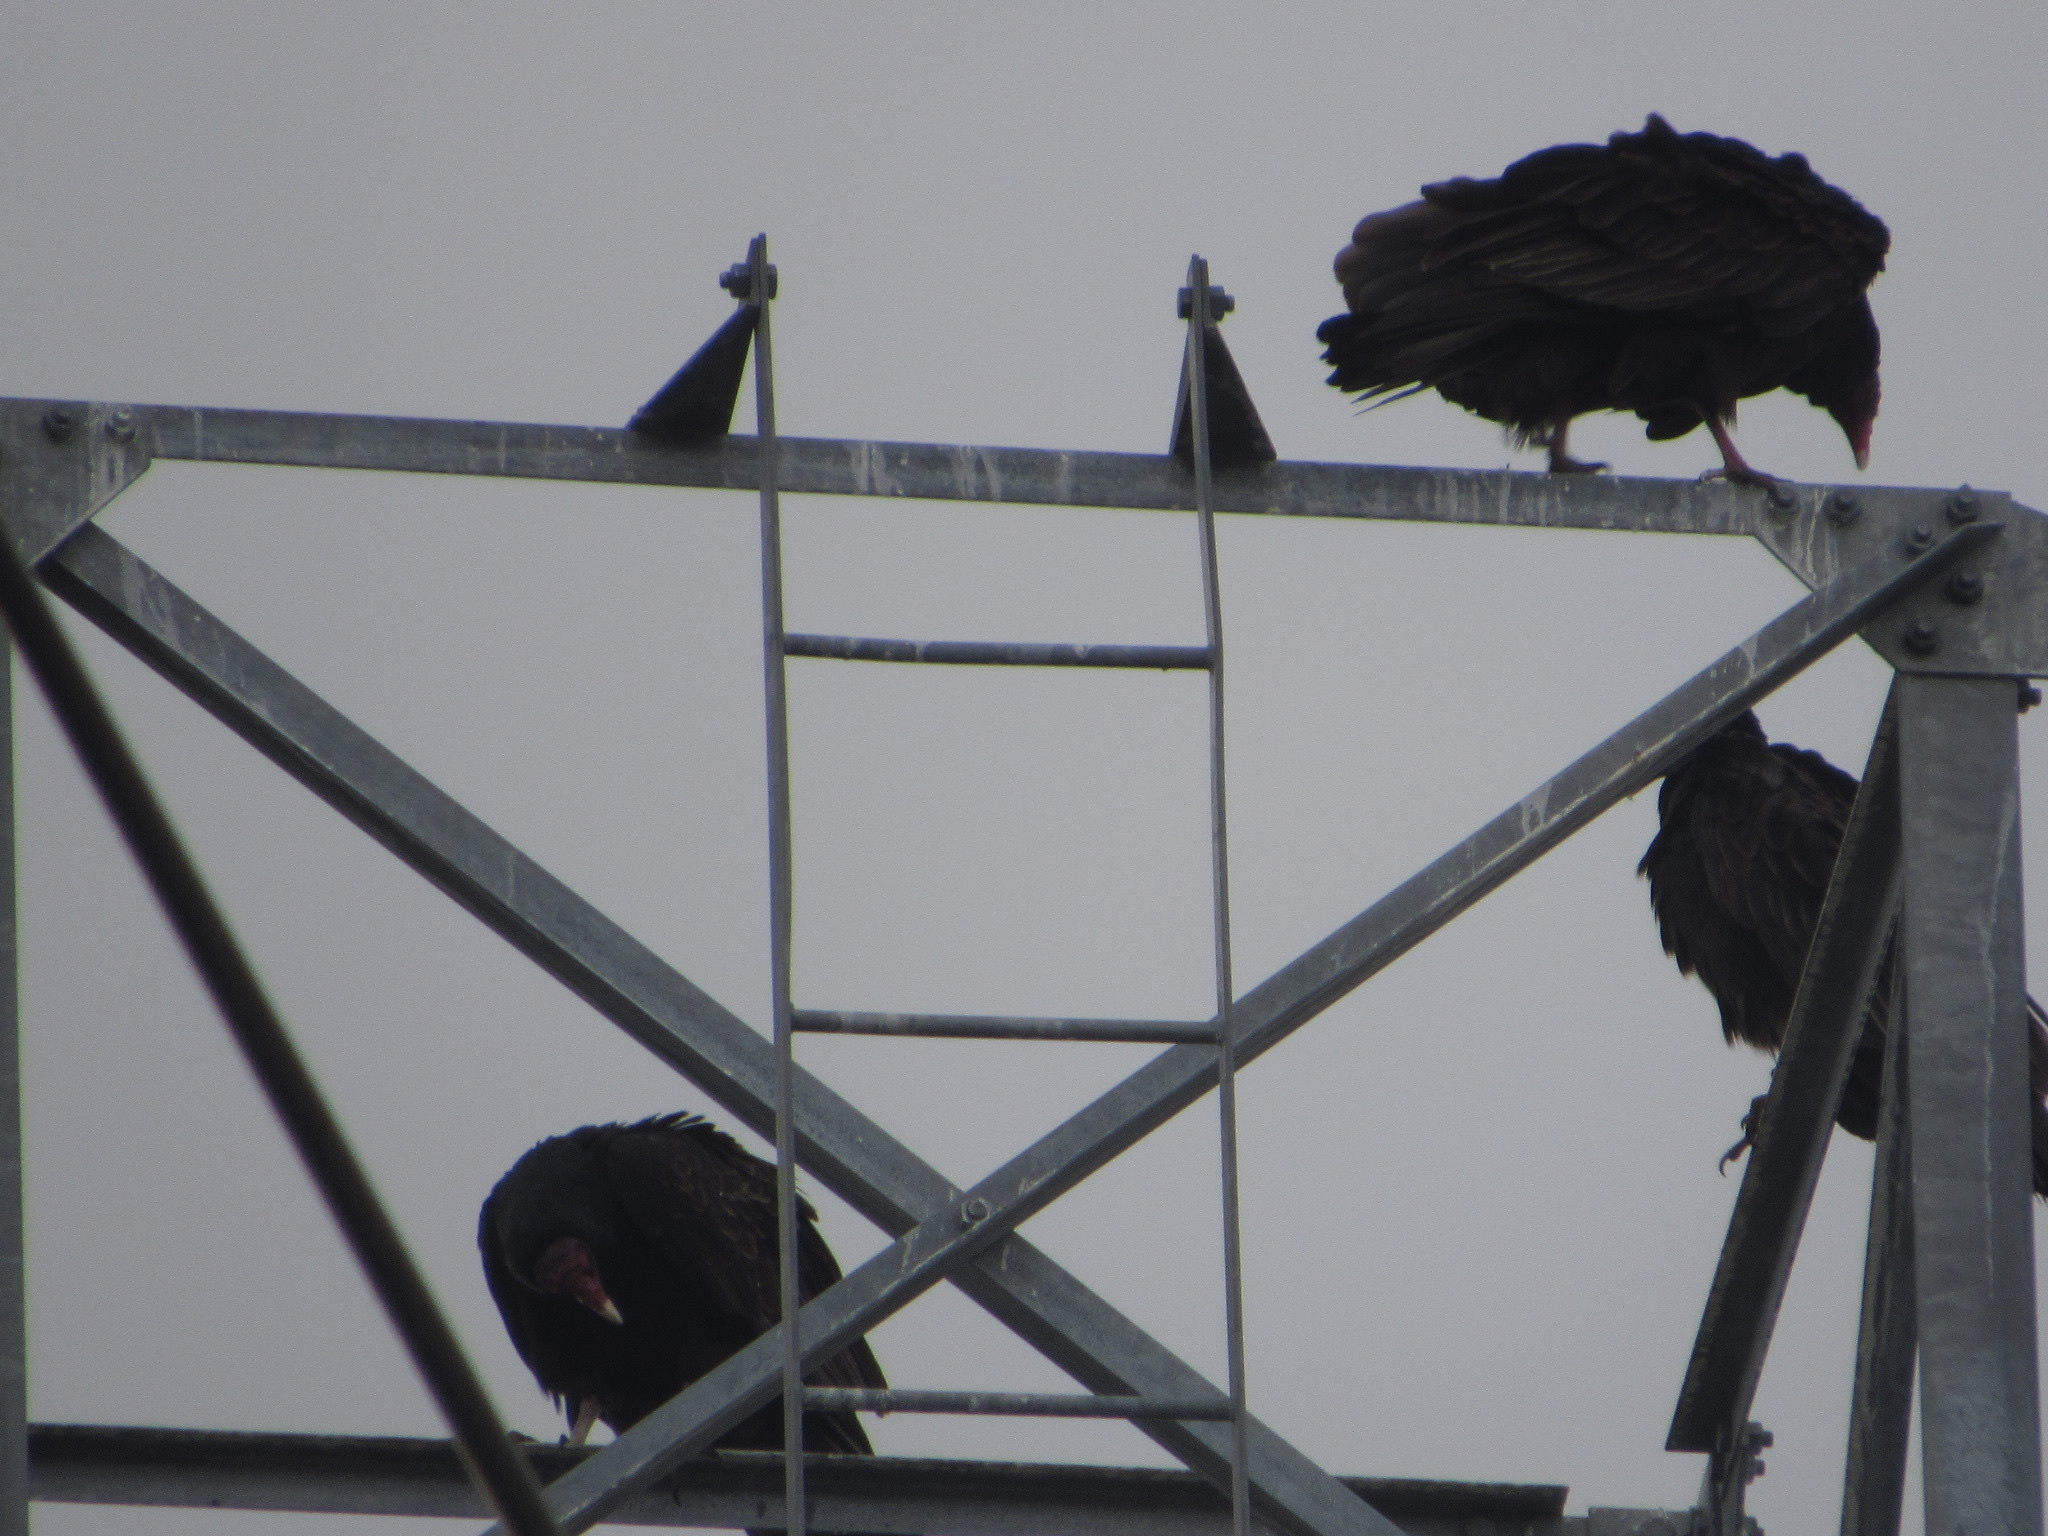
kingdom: Animalia
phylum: Chordata
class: Aves
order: Accipitriformes
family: Cathartidae
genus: Cathartes
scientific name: Cathartes aura
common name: Turkey vulture
